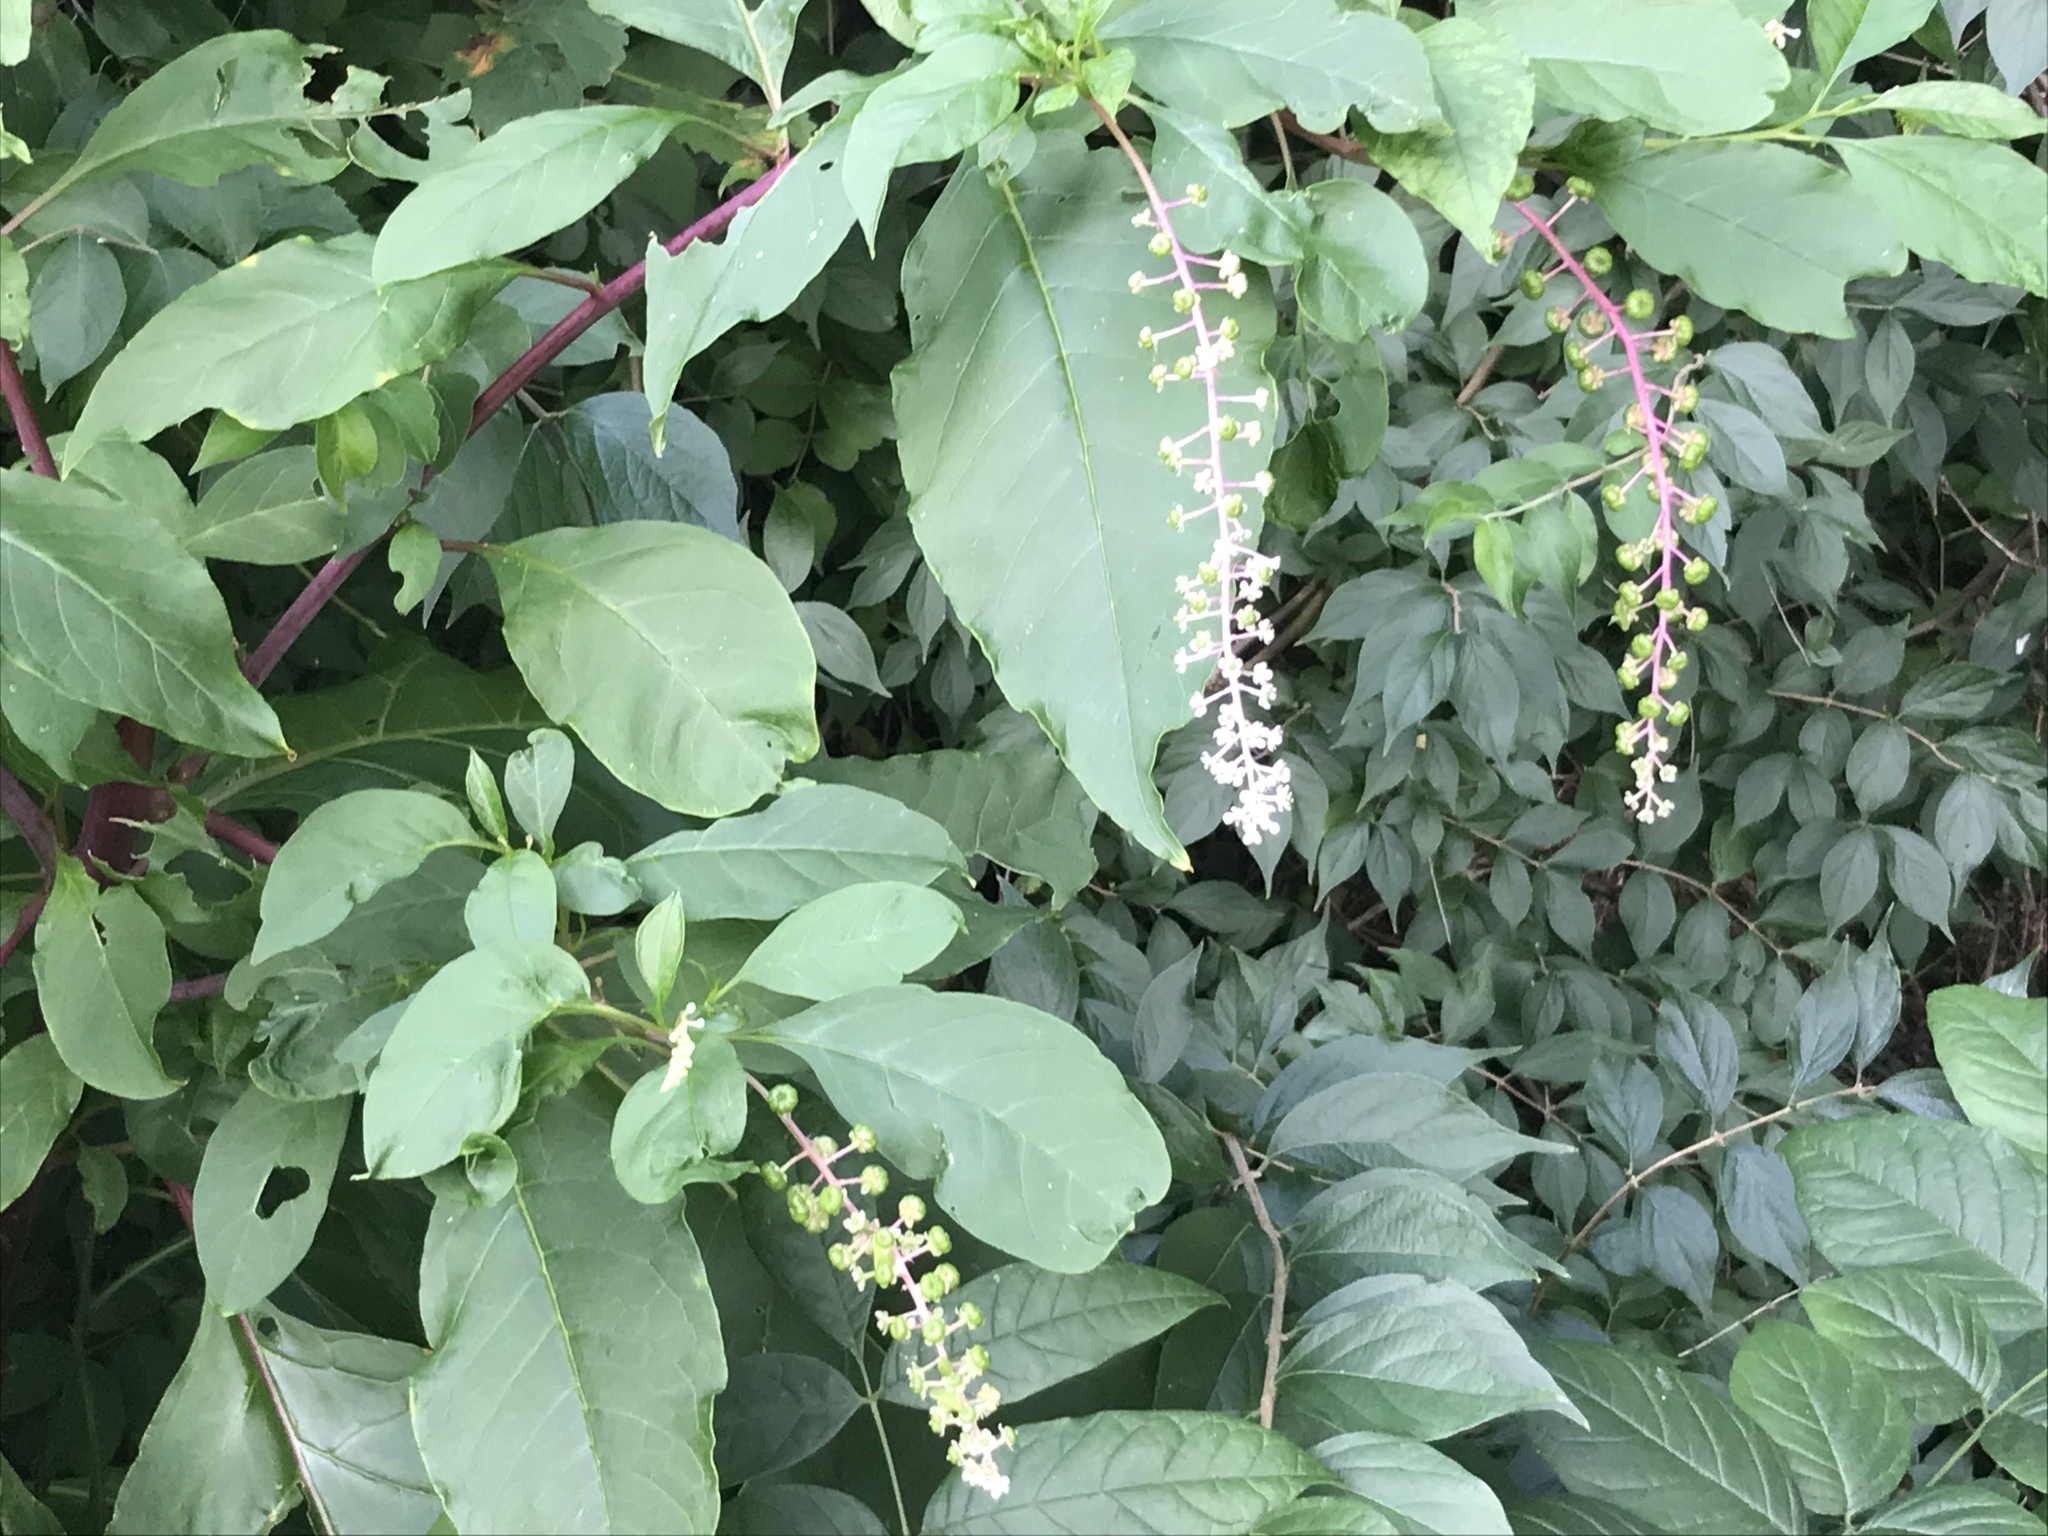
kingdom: Plantae
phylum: Tracheophyta
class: Magnoliopsida
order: Caryophyllales
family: Phytolaccaceae
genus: Phytolacca
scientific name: Phytolacca americana
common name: American pokeweed
